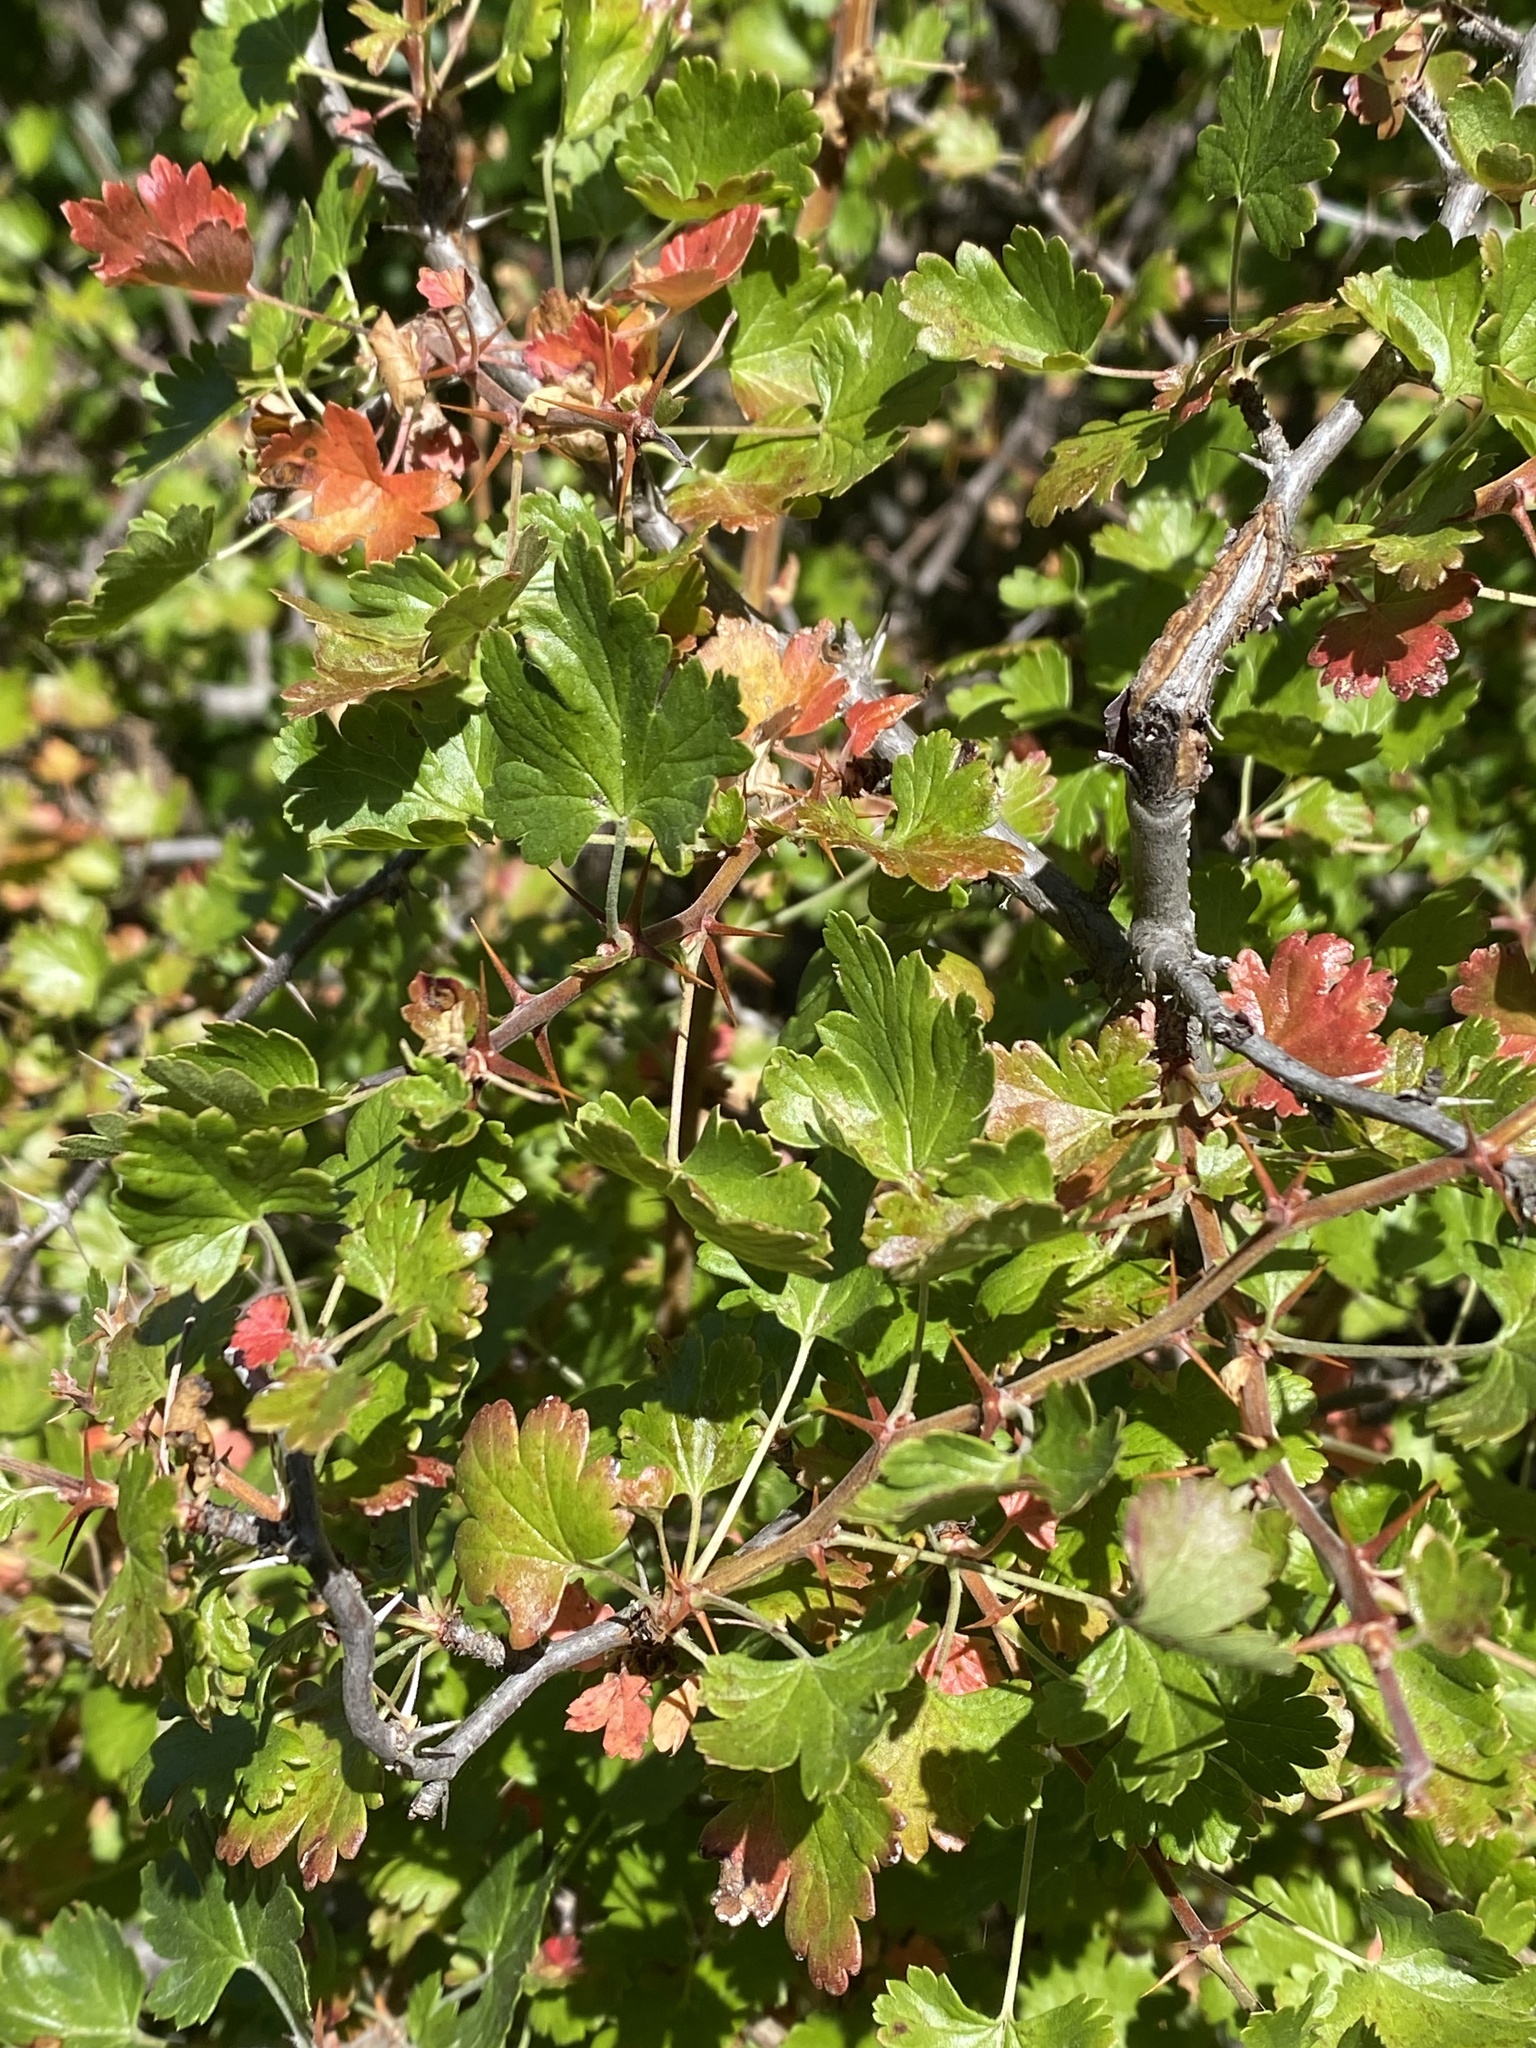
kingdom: Plantae
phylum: Tracheophyta
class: Magnoliopsida
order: Saxifragales
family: Grossulariaceae
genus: Ribes
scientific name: Ribes californicum
